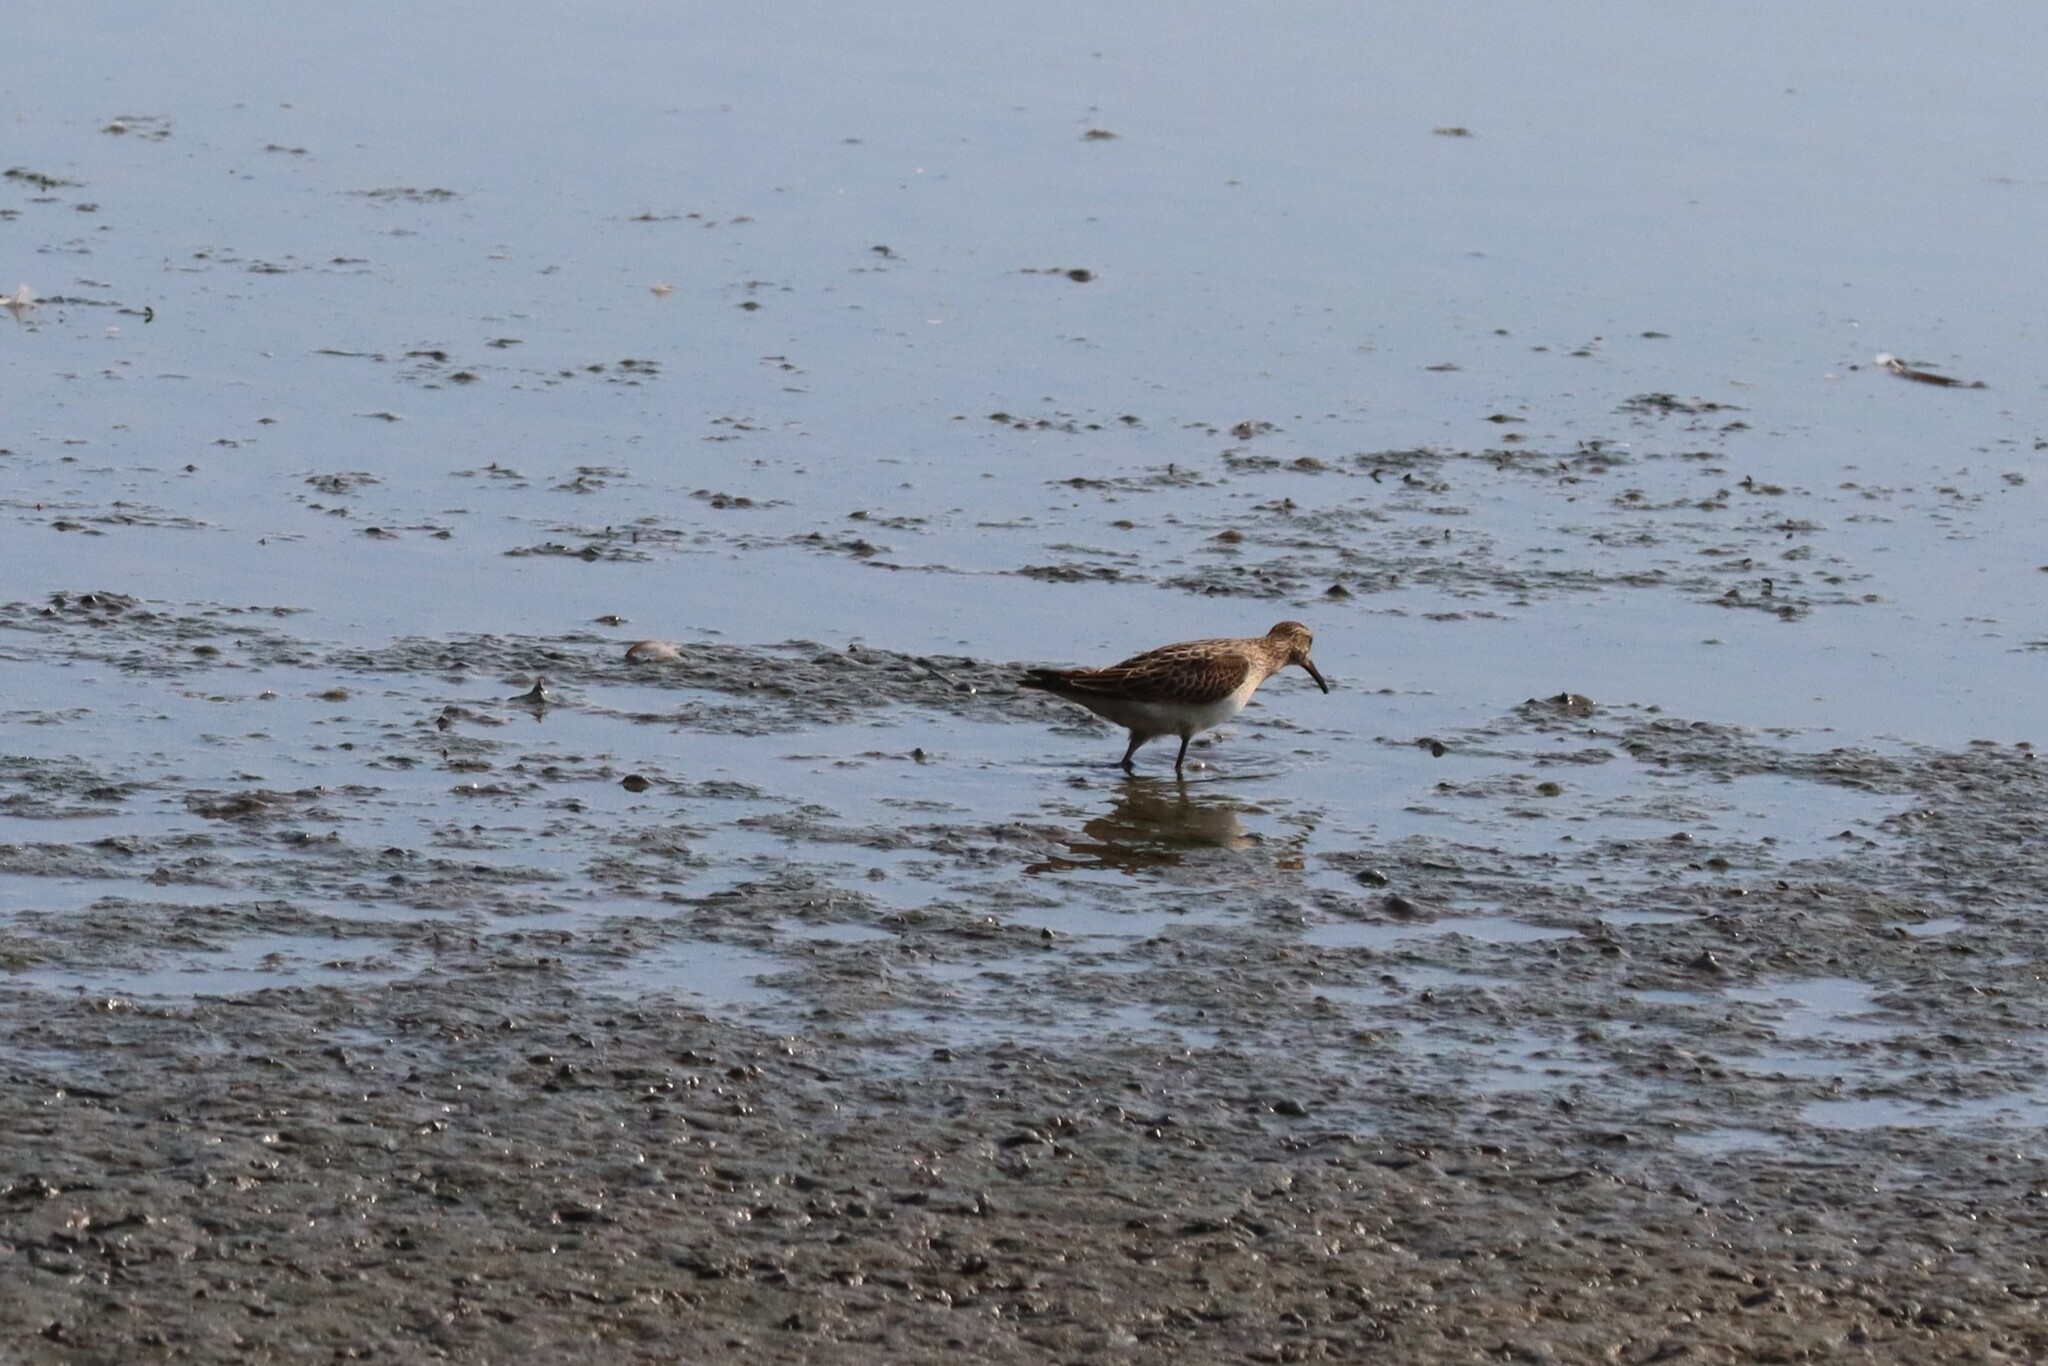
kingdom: Animalia
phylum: Chordata
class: Aves
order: Charadriiformes
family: Scolopacidae
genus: Calidris
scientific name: Calidris melanotos
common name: Pectoral sandpiper
